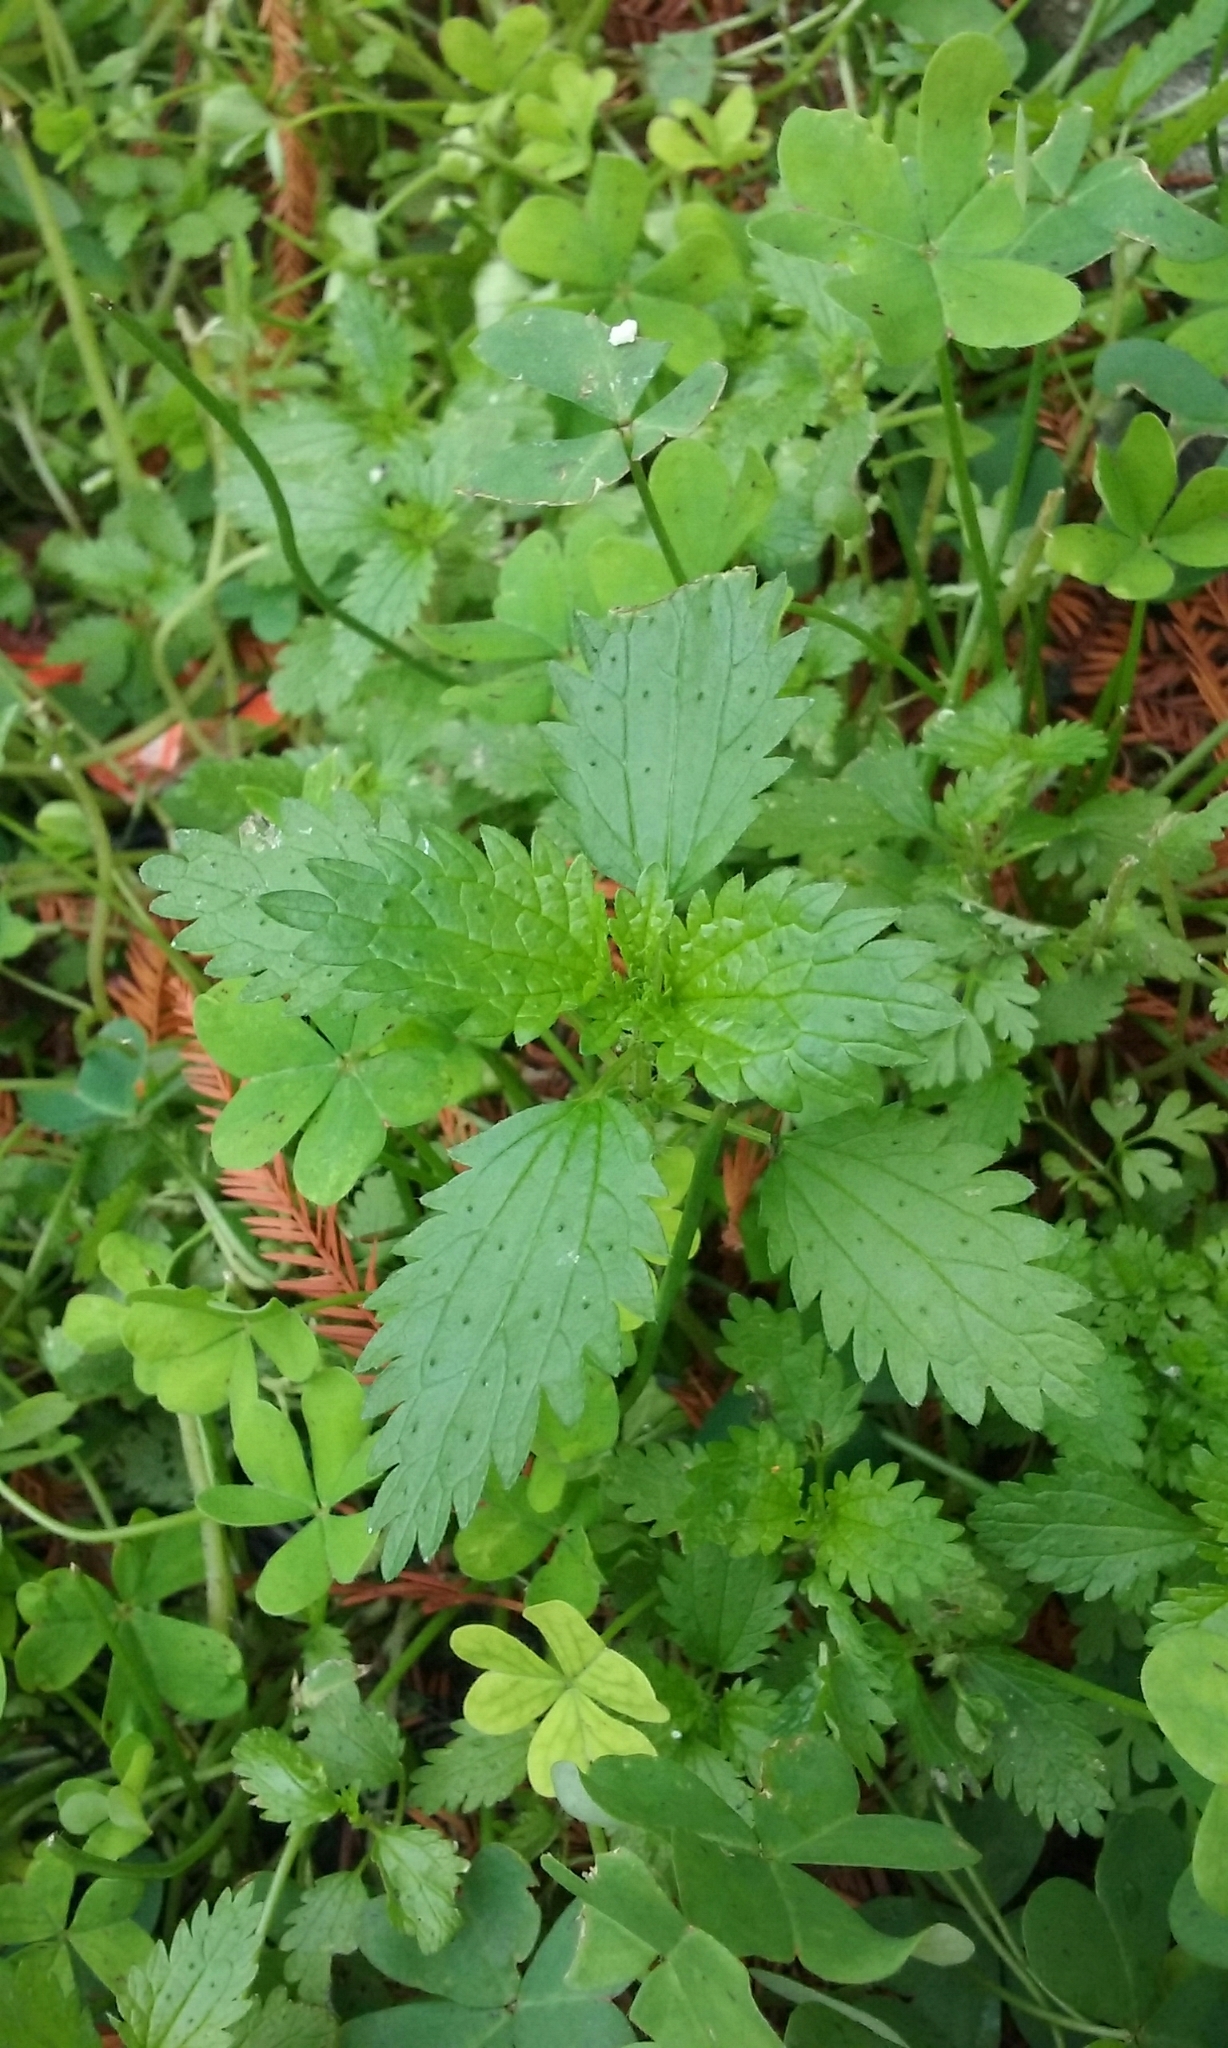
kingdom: Plantae
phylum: Tracheophyta
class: Magnoliopsida
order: Rosales
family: Urticaceae
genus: Urtica
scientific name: Urtica urens
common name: Dwarf nettle
